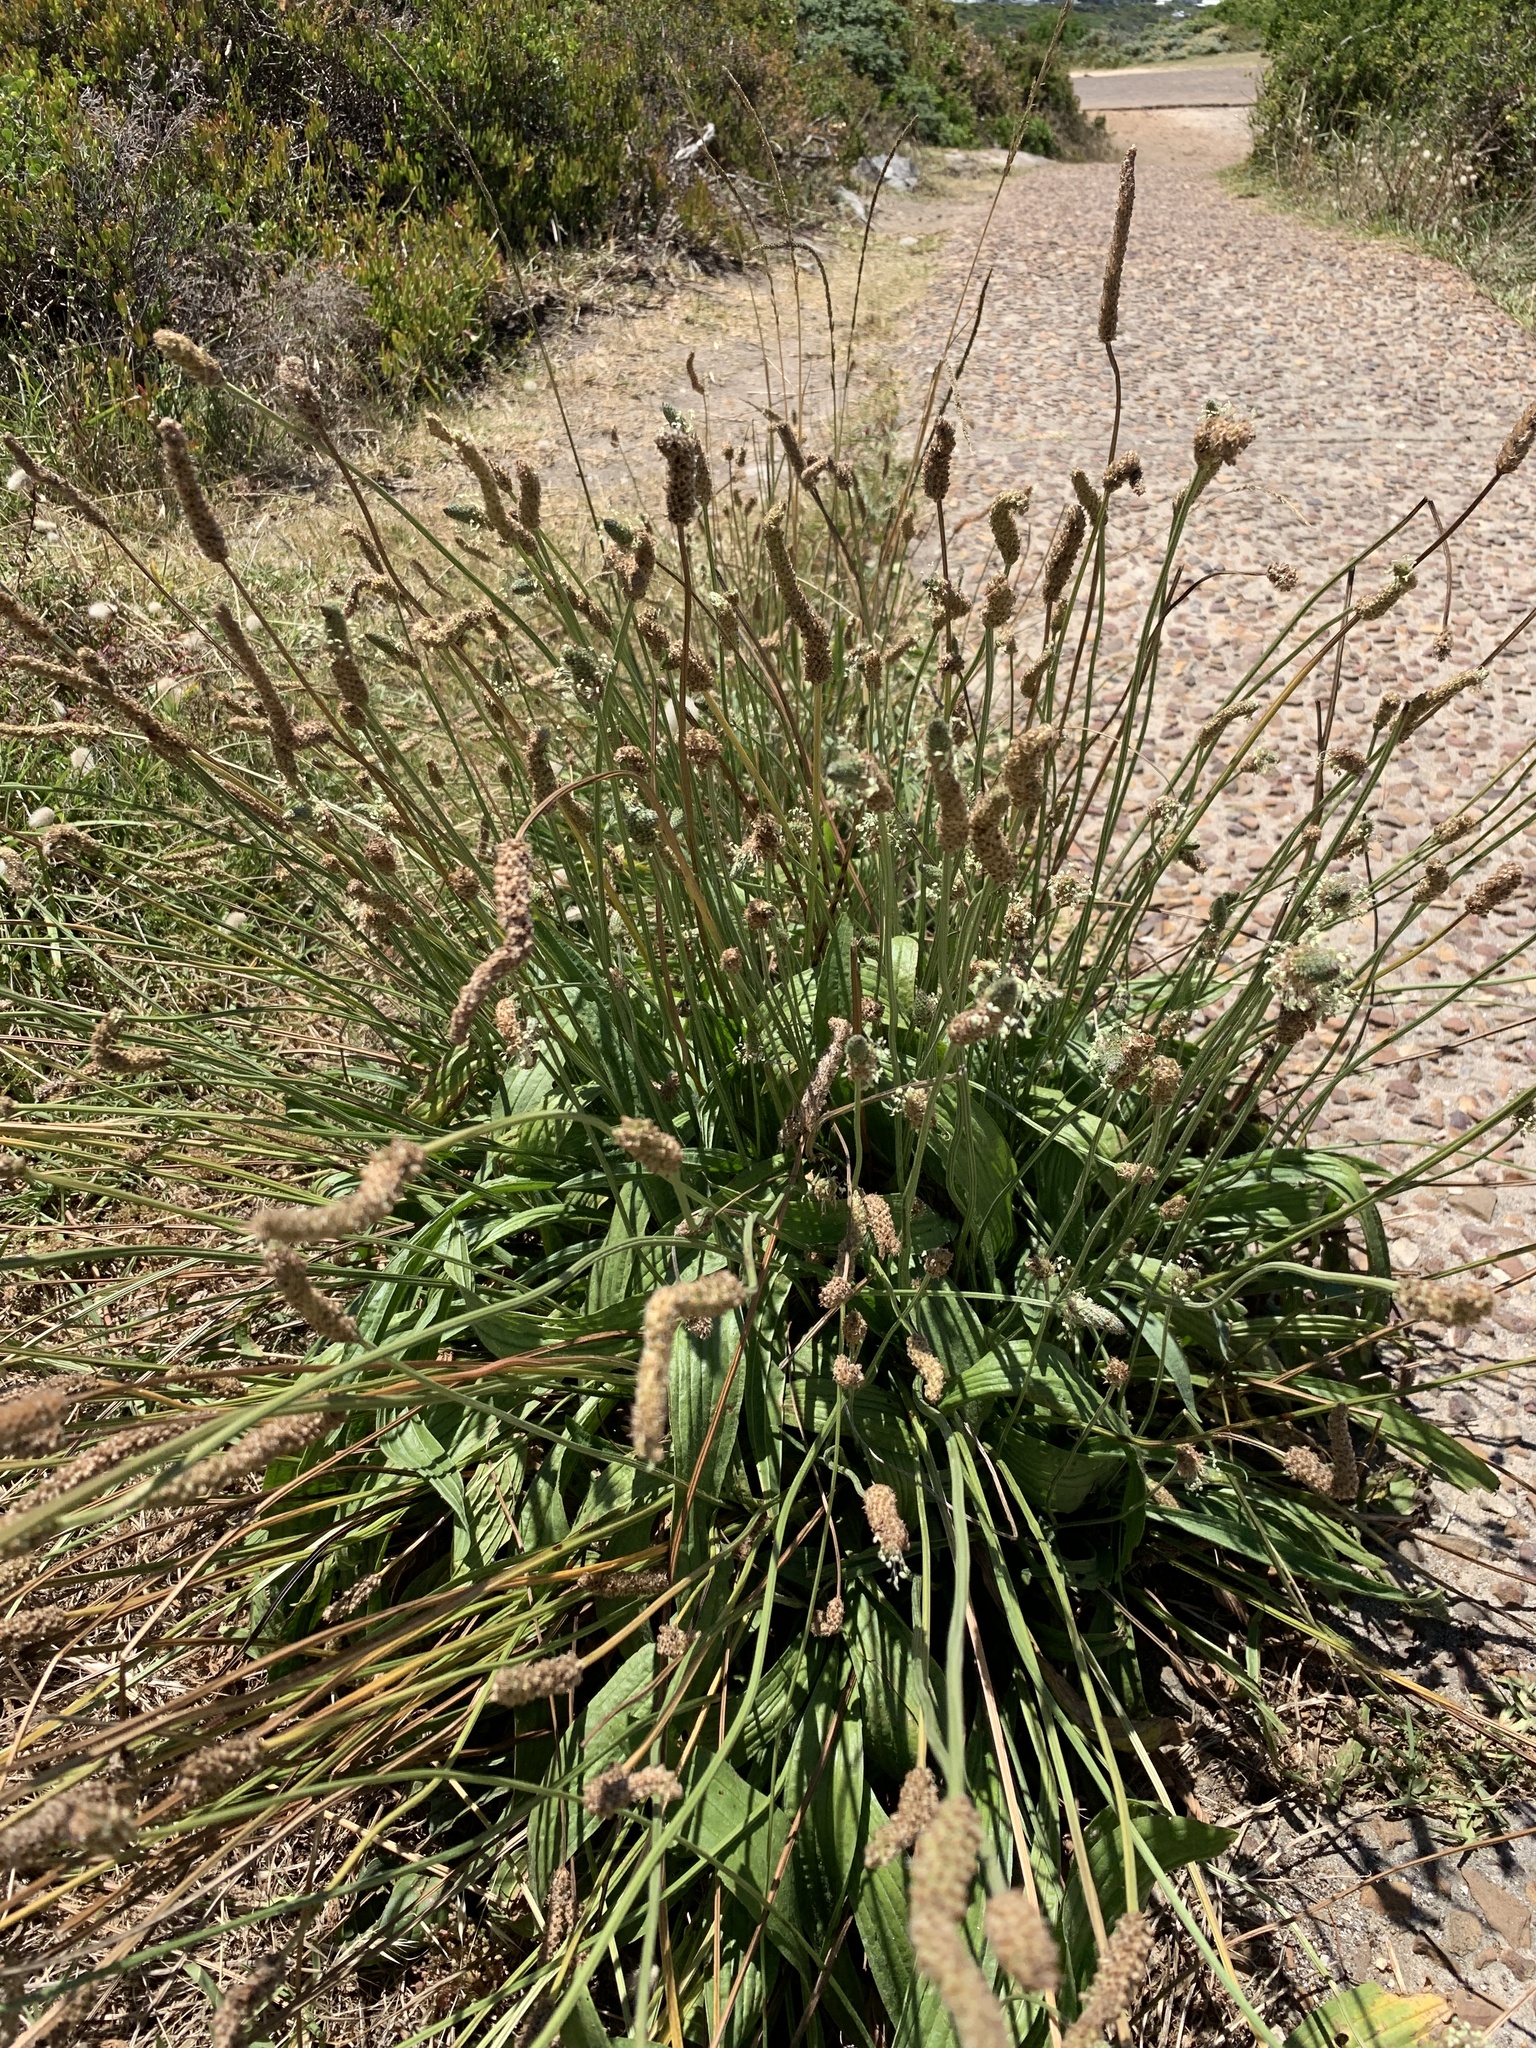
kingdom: Plantae
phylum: Tracheophyta
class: Magnoliopsida
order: Lamiales
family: Plantaginaceae
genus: Plantago
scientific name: Plantago lanceolata
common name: Ribwort plantain
